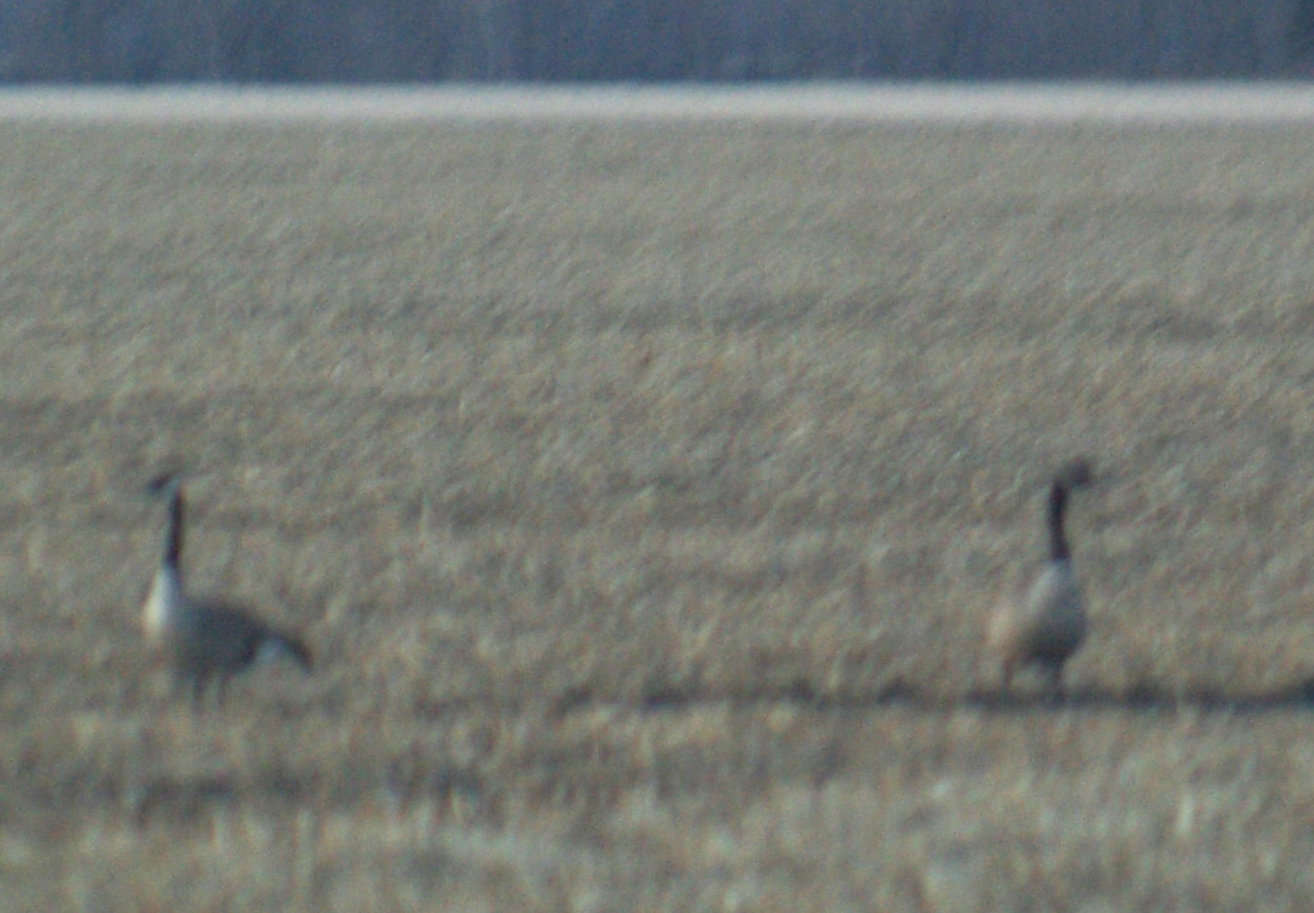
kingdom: Animalia
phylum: Chordata
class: Aves
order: Anseriformes
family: Anatidae
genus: Branta
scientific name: Branta canadensis
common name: Canada goose
